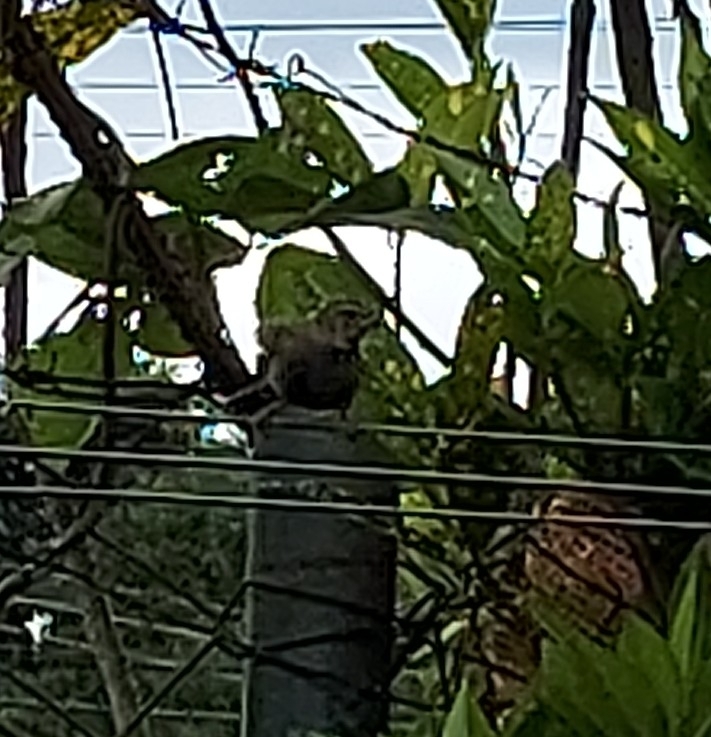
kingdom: Animalia
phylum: Chordata
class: Aves
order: Passeriformes
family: Thraupidae
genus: Tiaris
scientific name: Tiaris olivaceus
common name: Yellow-faced grassquit
